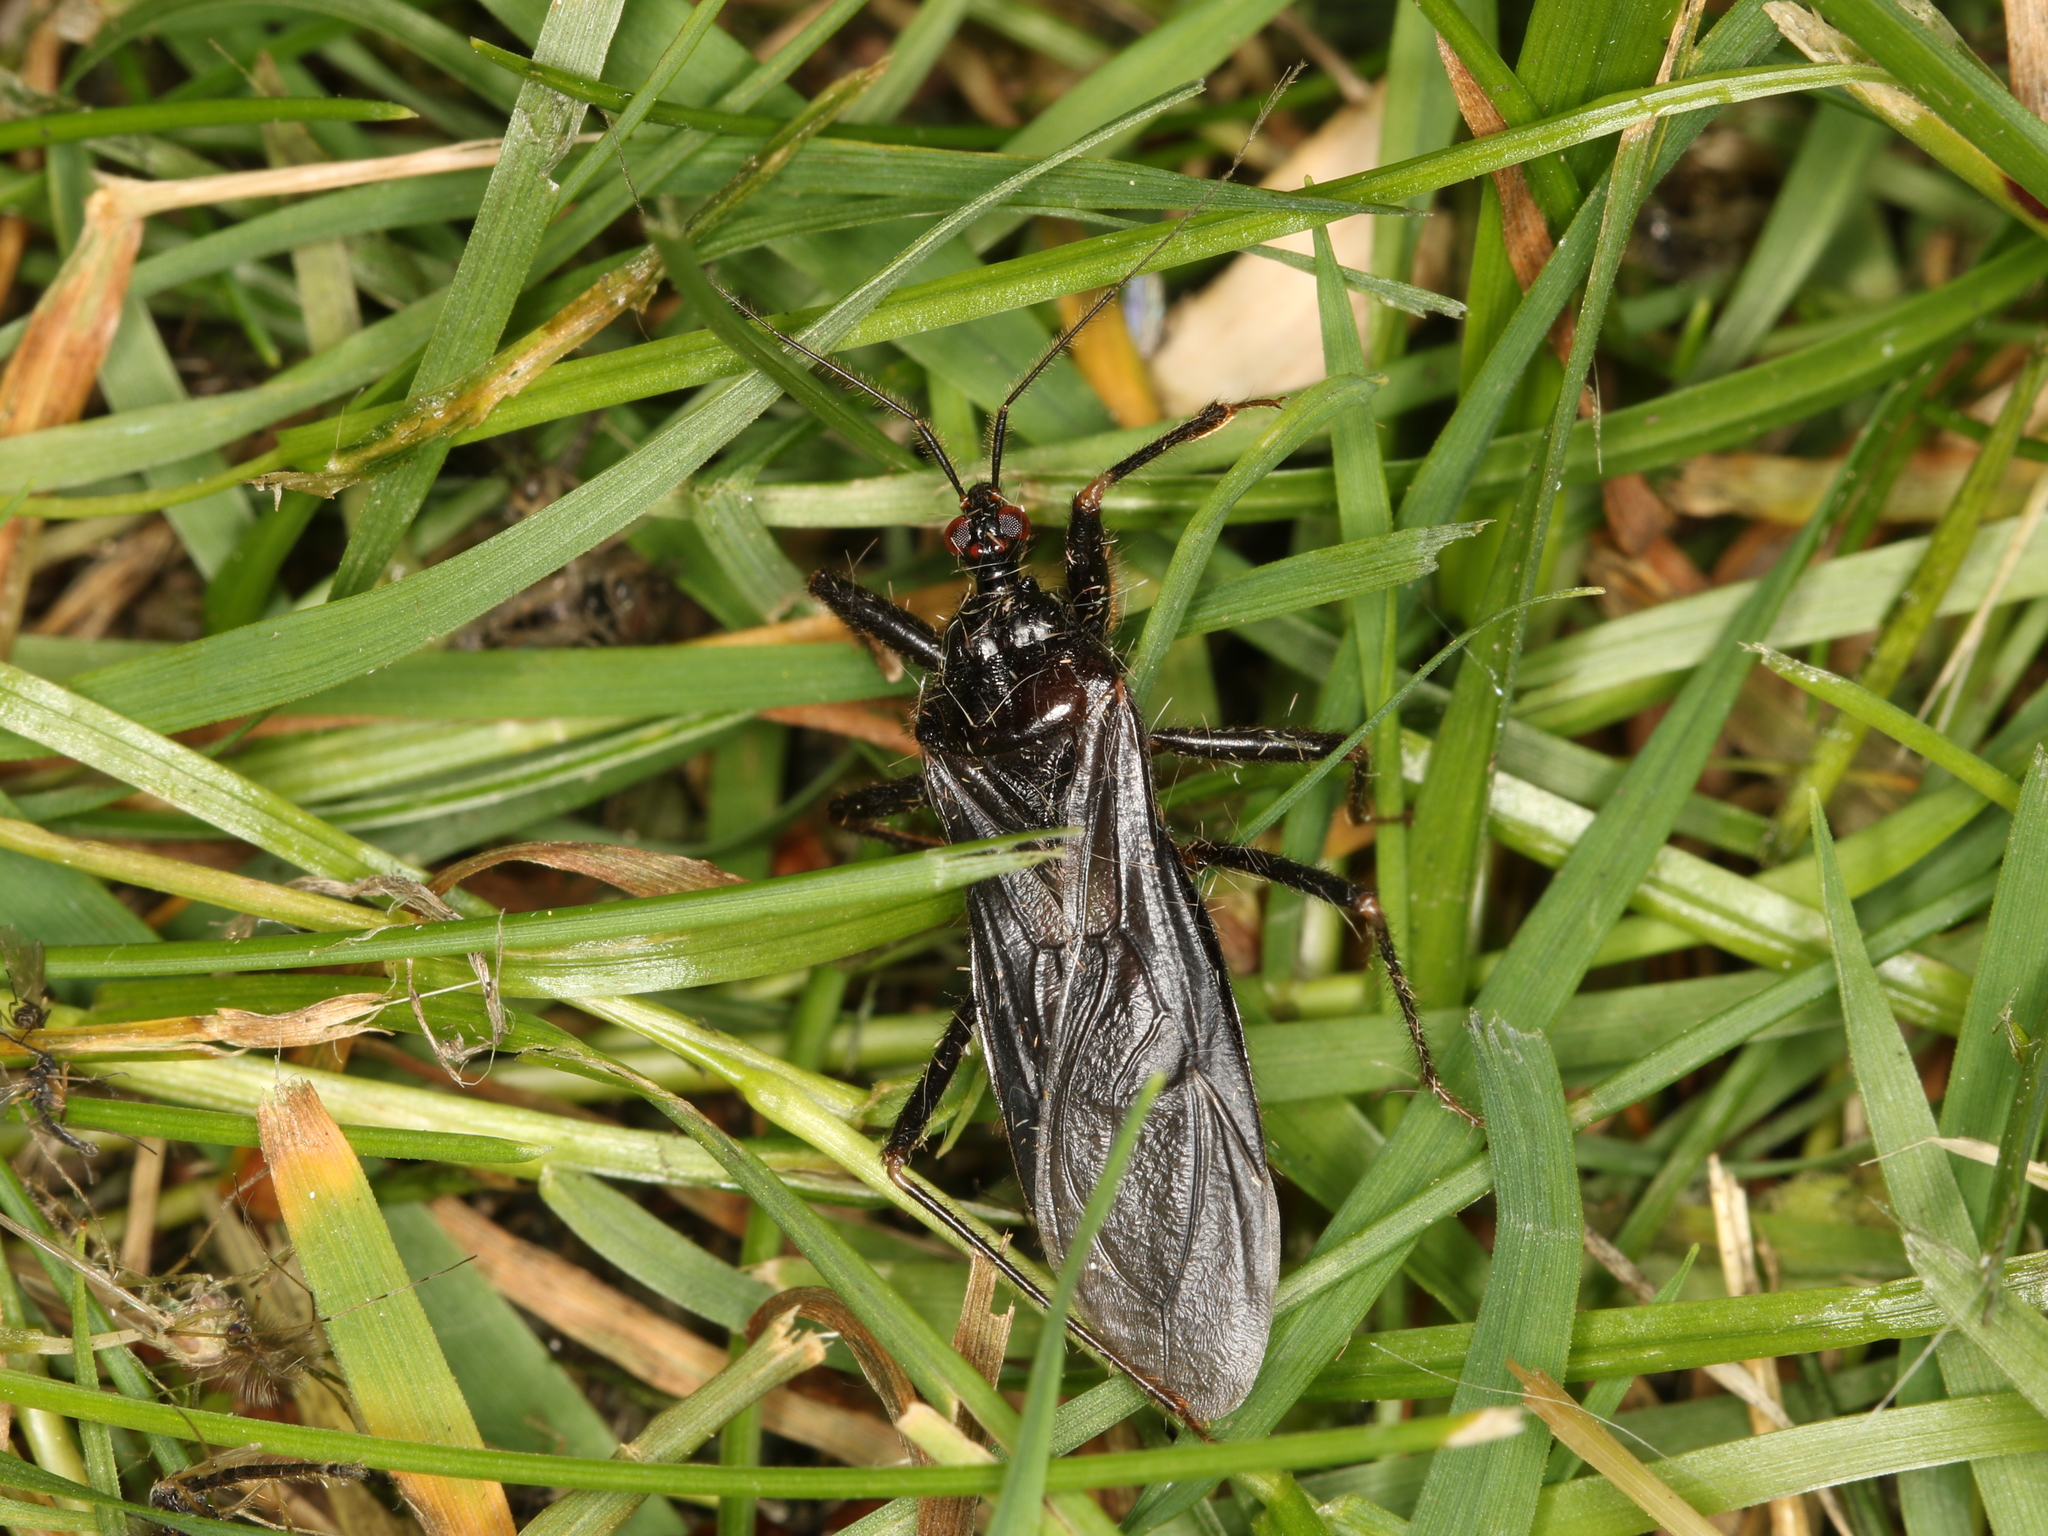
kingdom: Animalia
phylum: Arthropoda
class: Insecta
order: Hemiptera
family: Reduviidae
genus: Reduvius
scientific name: Reduvius personatus
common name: Masked hunter
